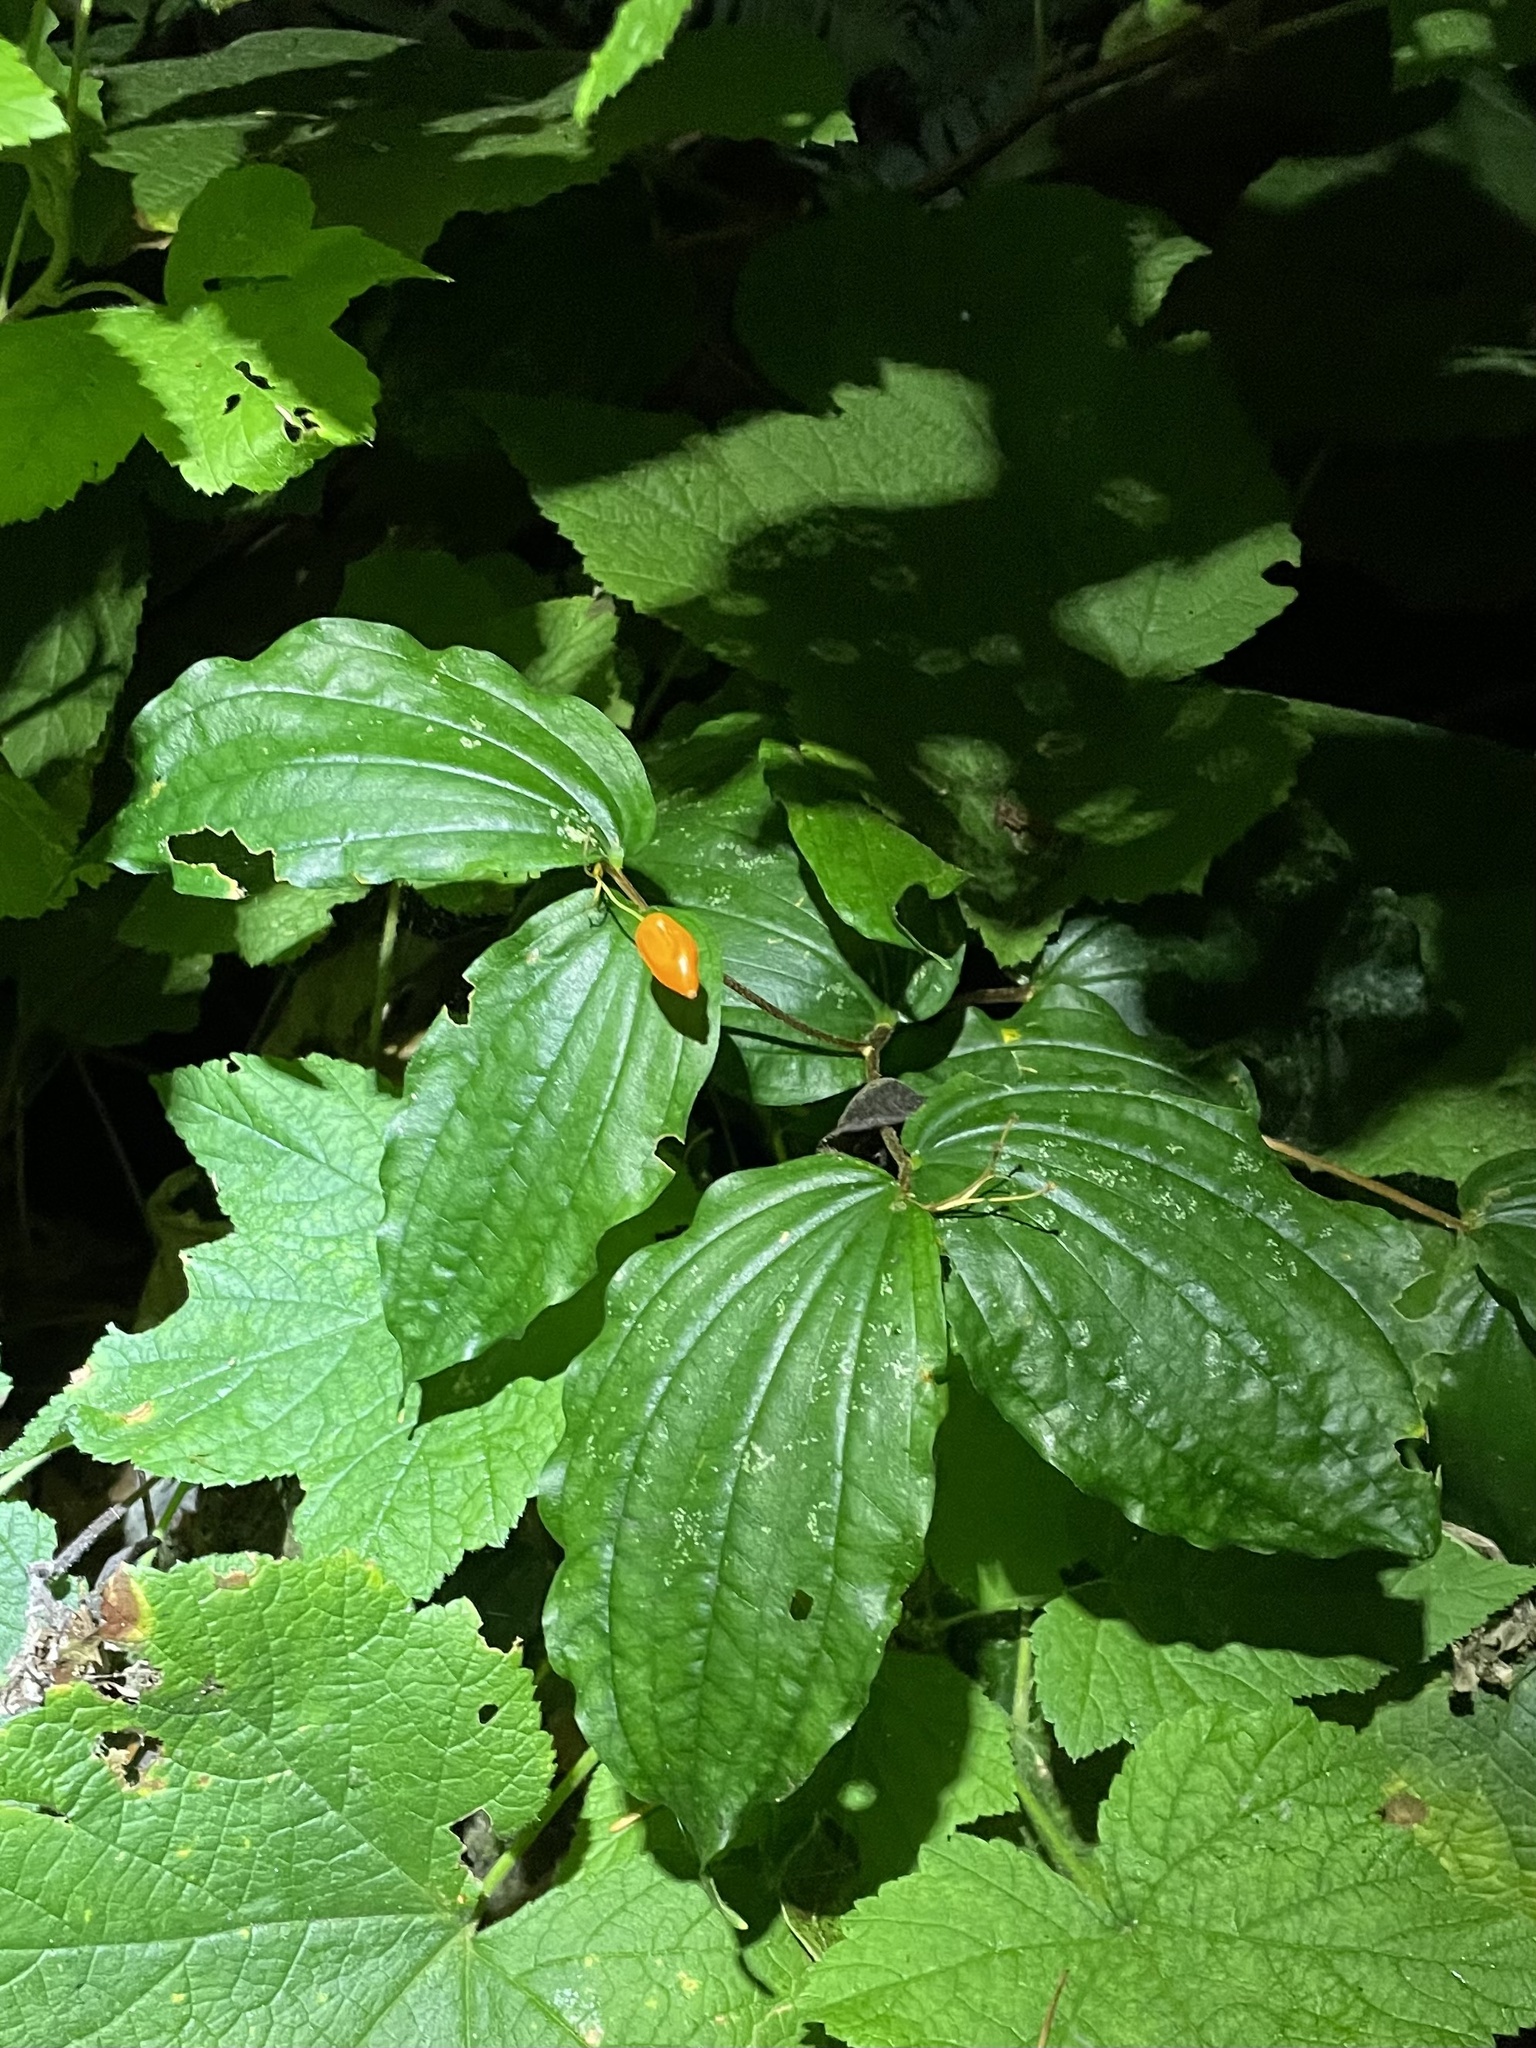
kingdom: Plantae
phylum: Tracheophyta
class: Liliopsida
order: Liliales
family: Liliaceae
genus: Prosartes
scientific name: Prosartes smithii
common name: Fairy-lantern
